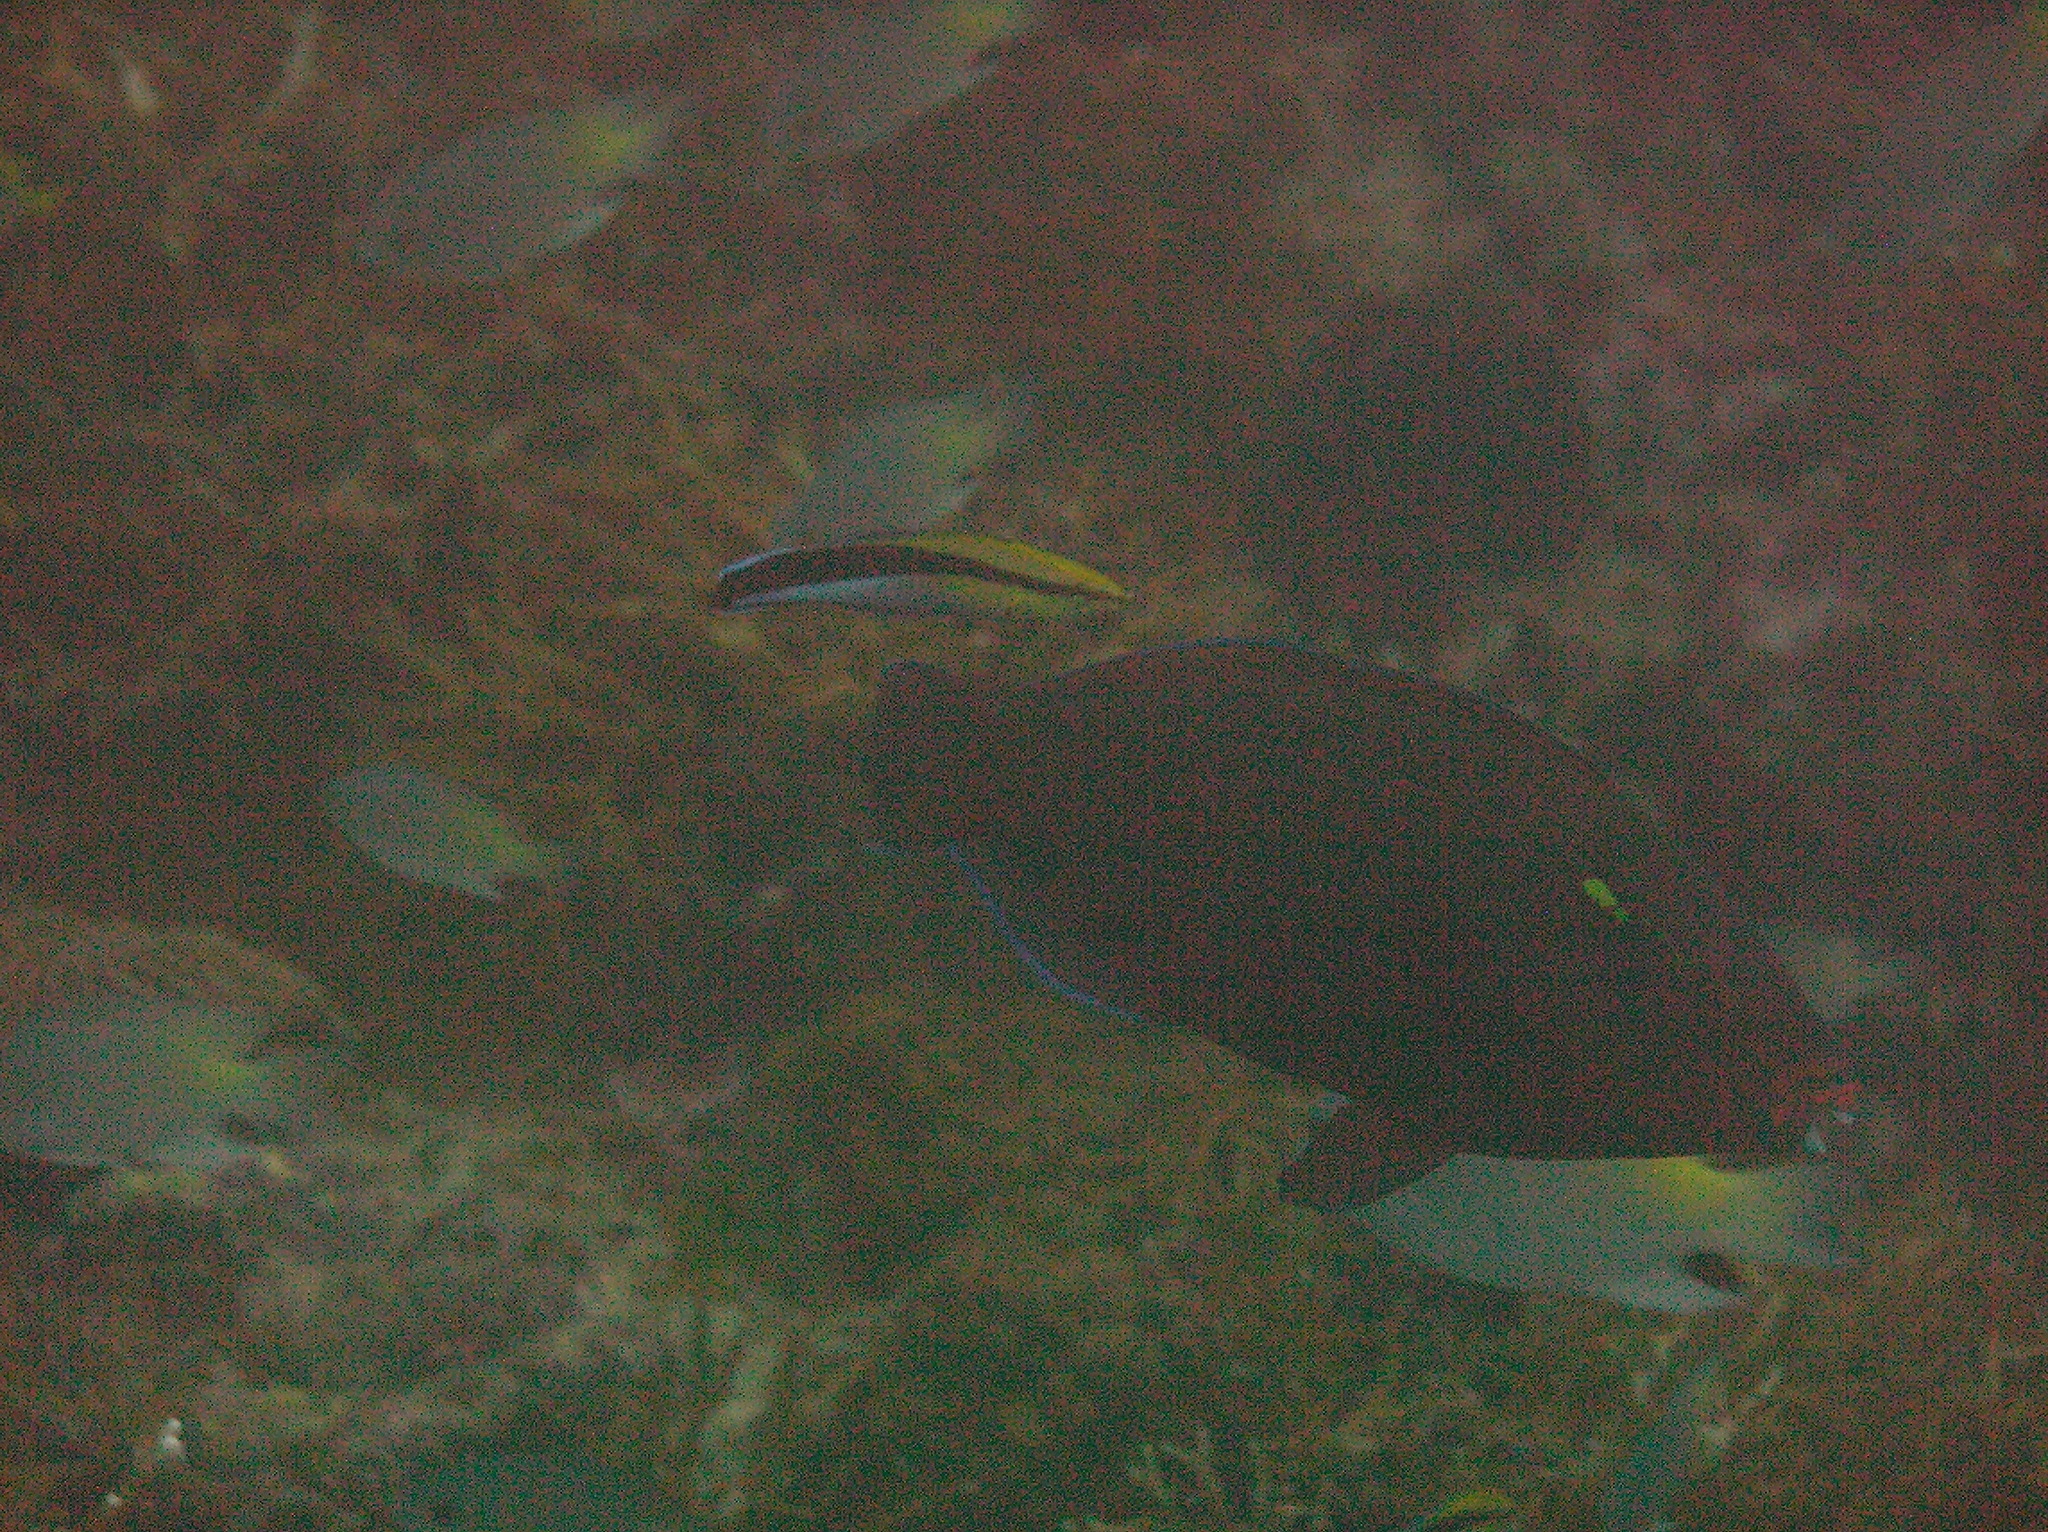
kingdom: Animalia
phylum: Chordata
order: Perciformes
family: Scaridae
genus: Scarus
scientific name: Scarus niger
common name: Dusky parrotfish
